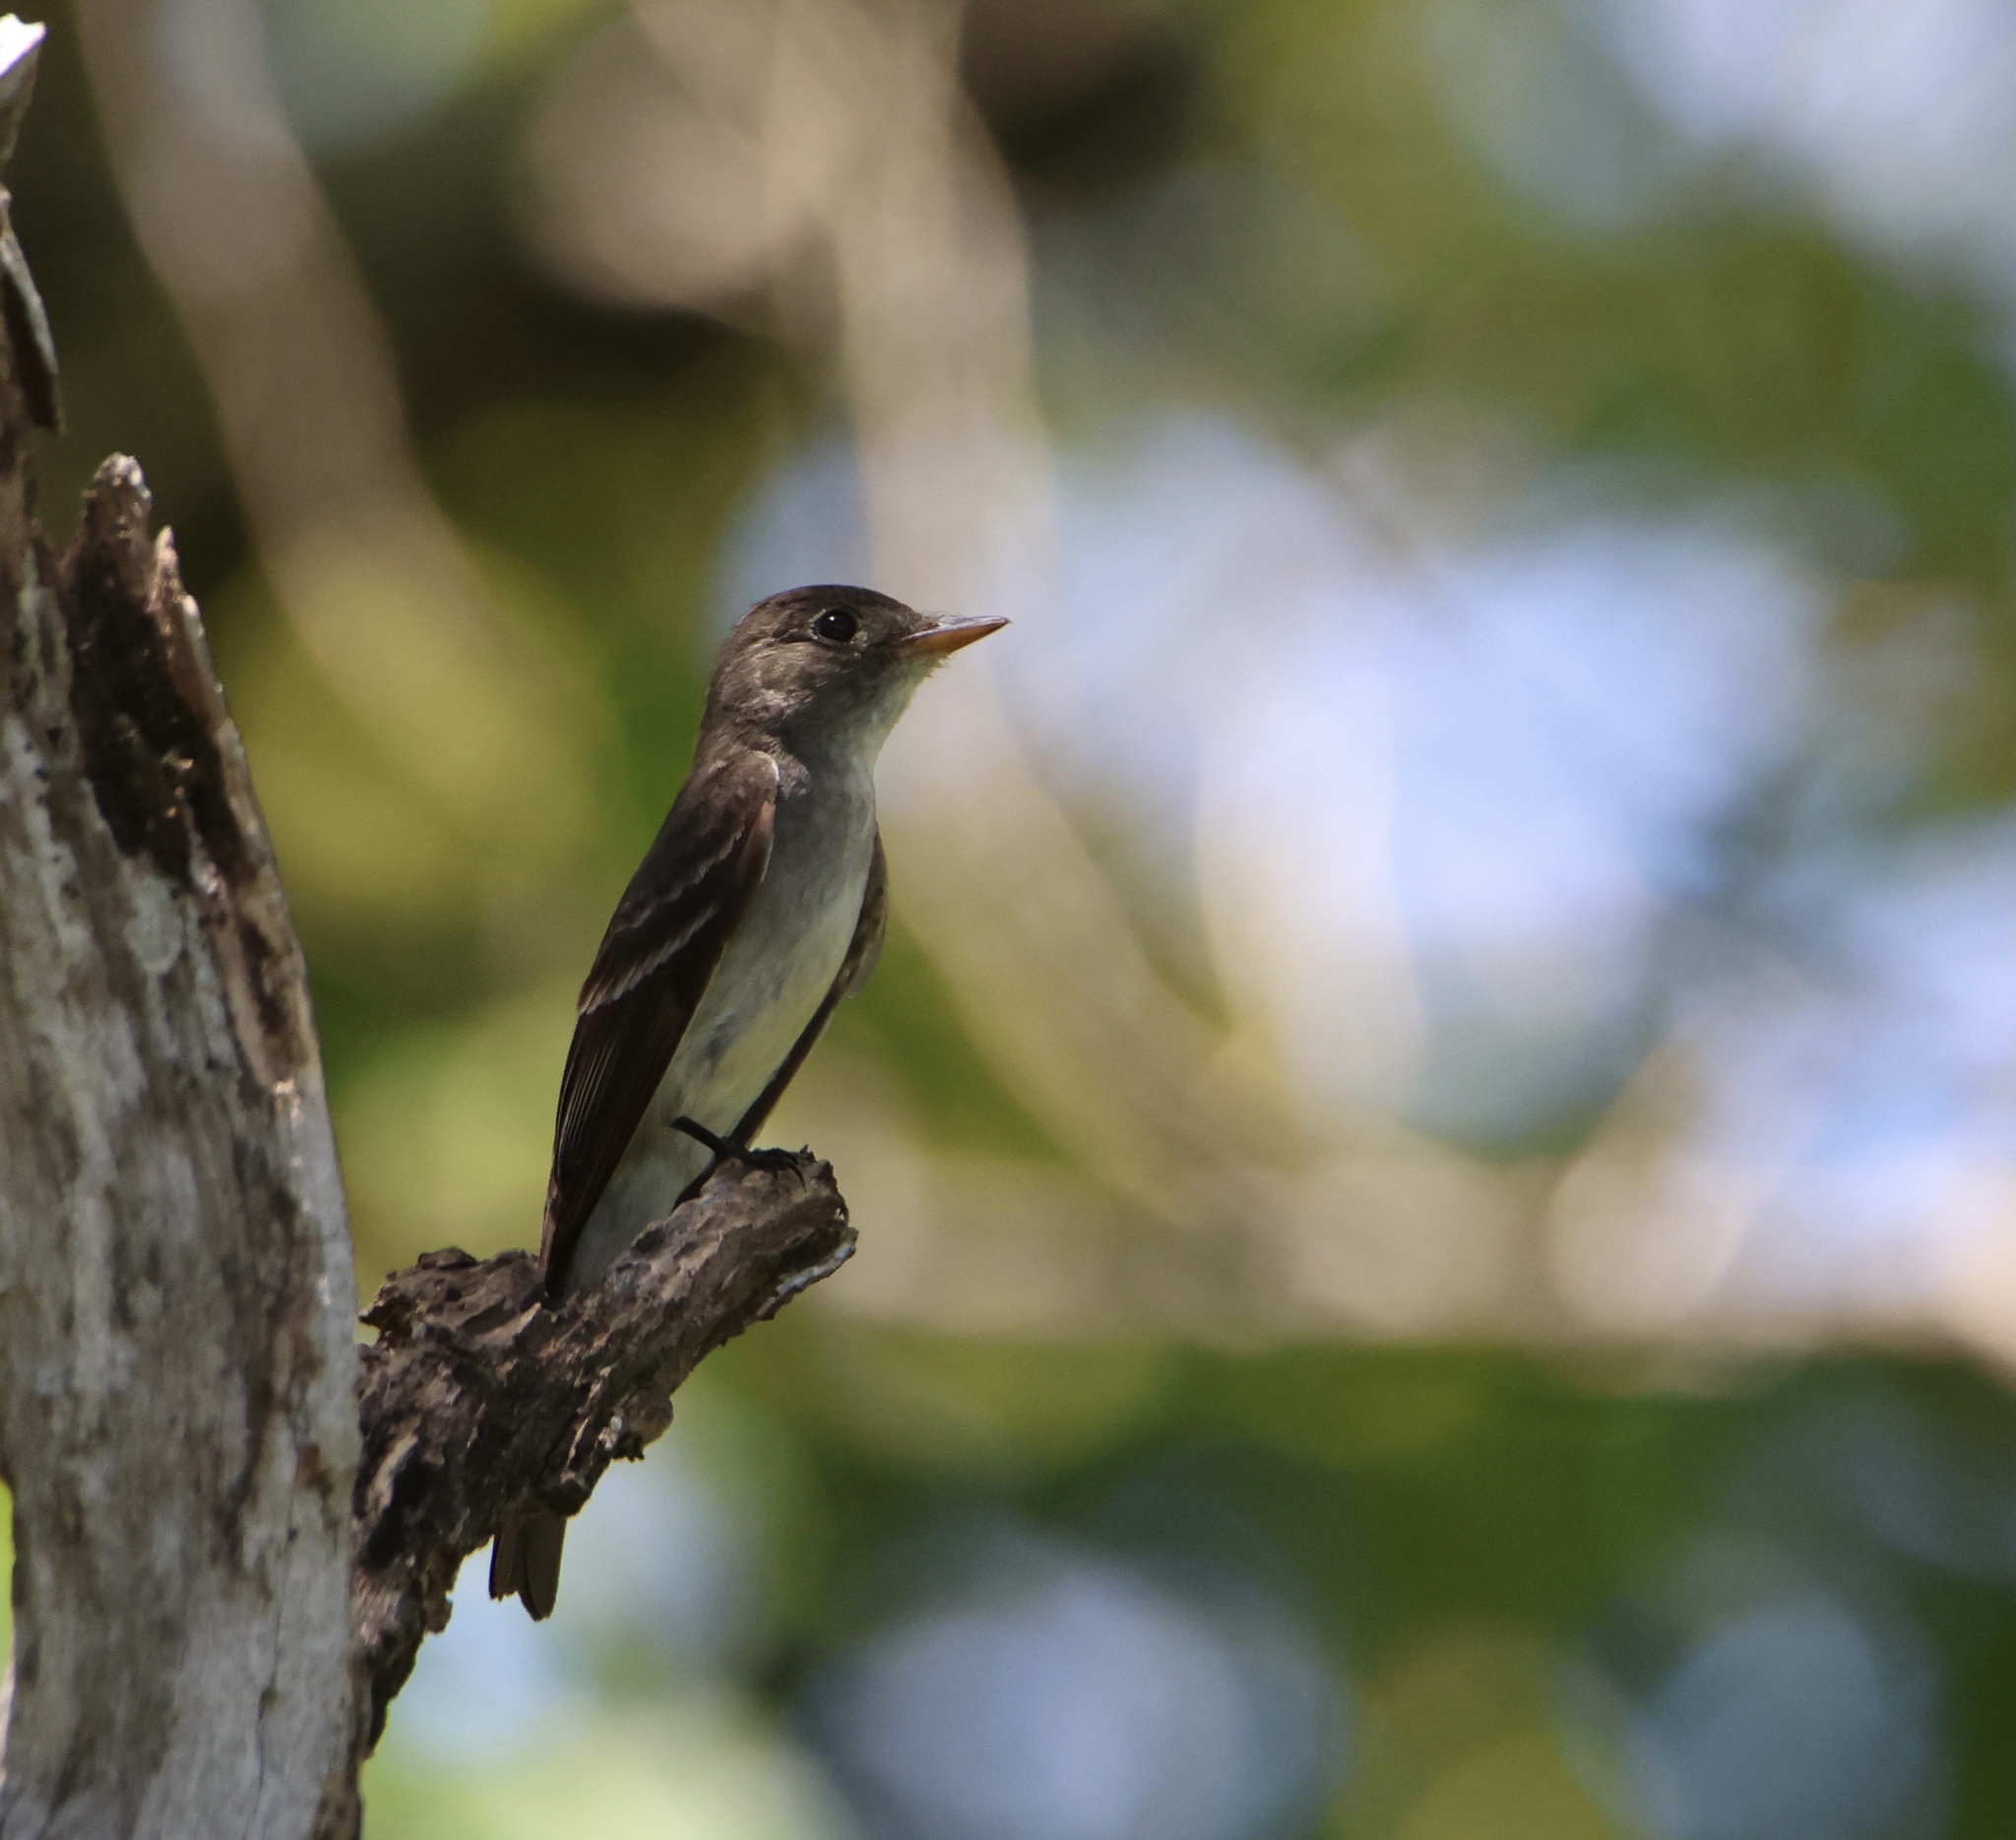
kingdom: Animalia
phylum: Chordata
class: Aves
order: Passeriformes
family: Tyrannidae
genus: Contopus
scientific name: Contopus virens
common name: Eastern wood-pewee
